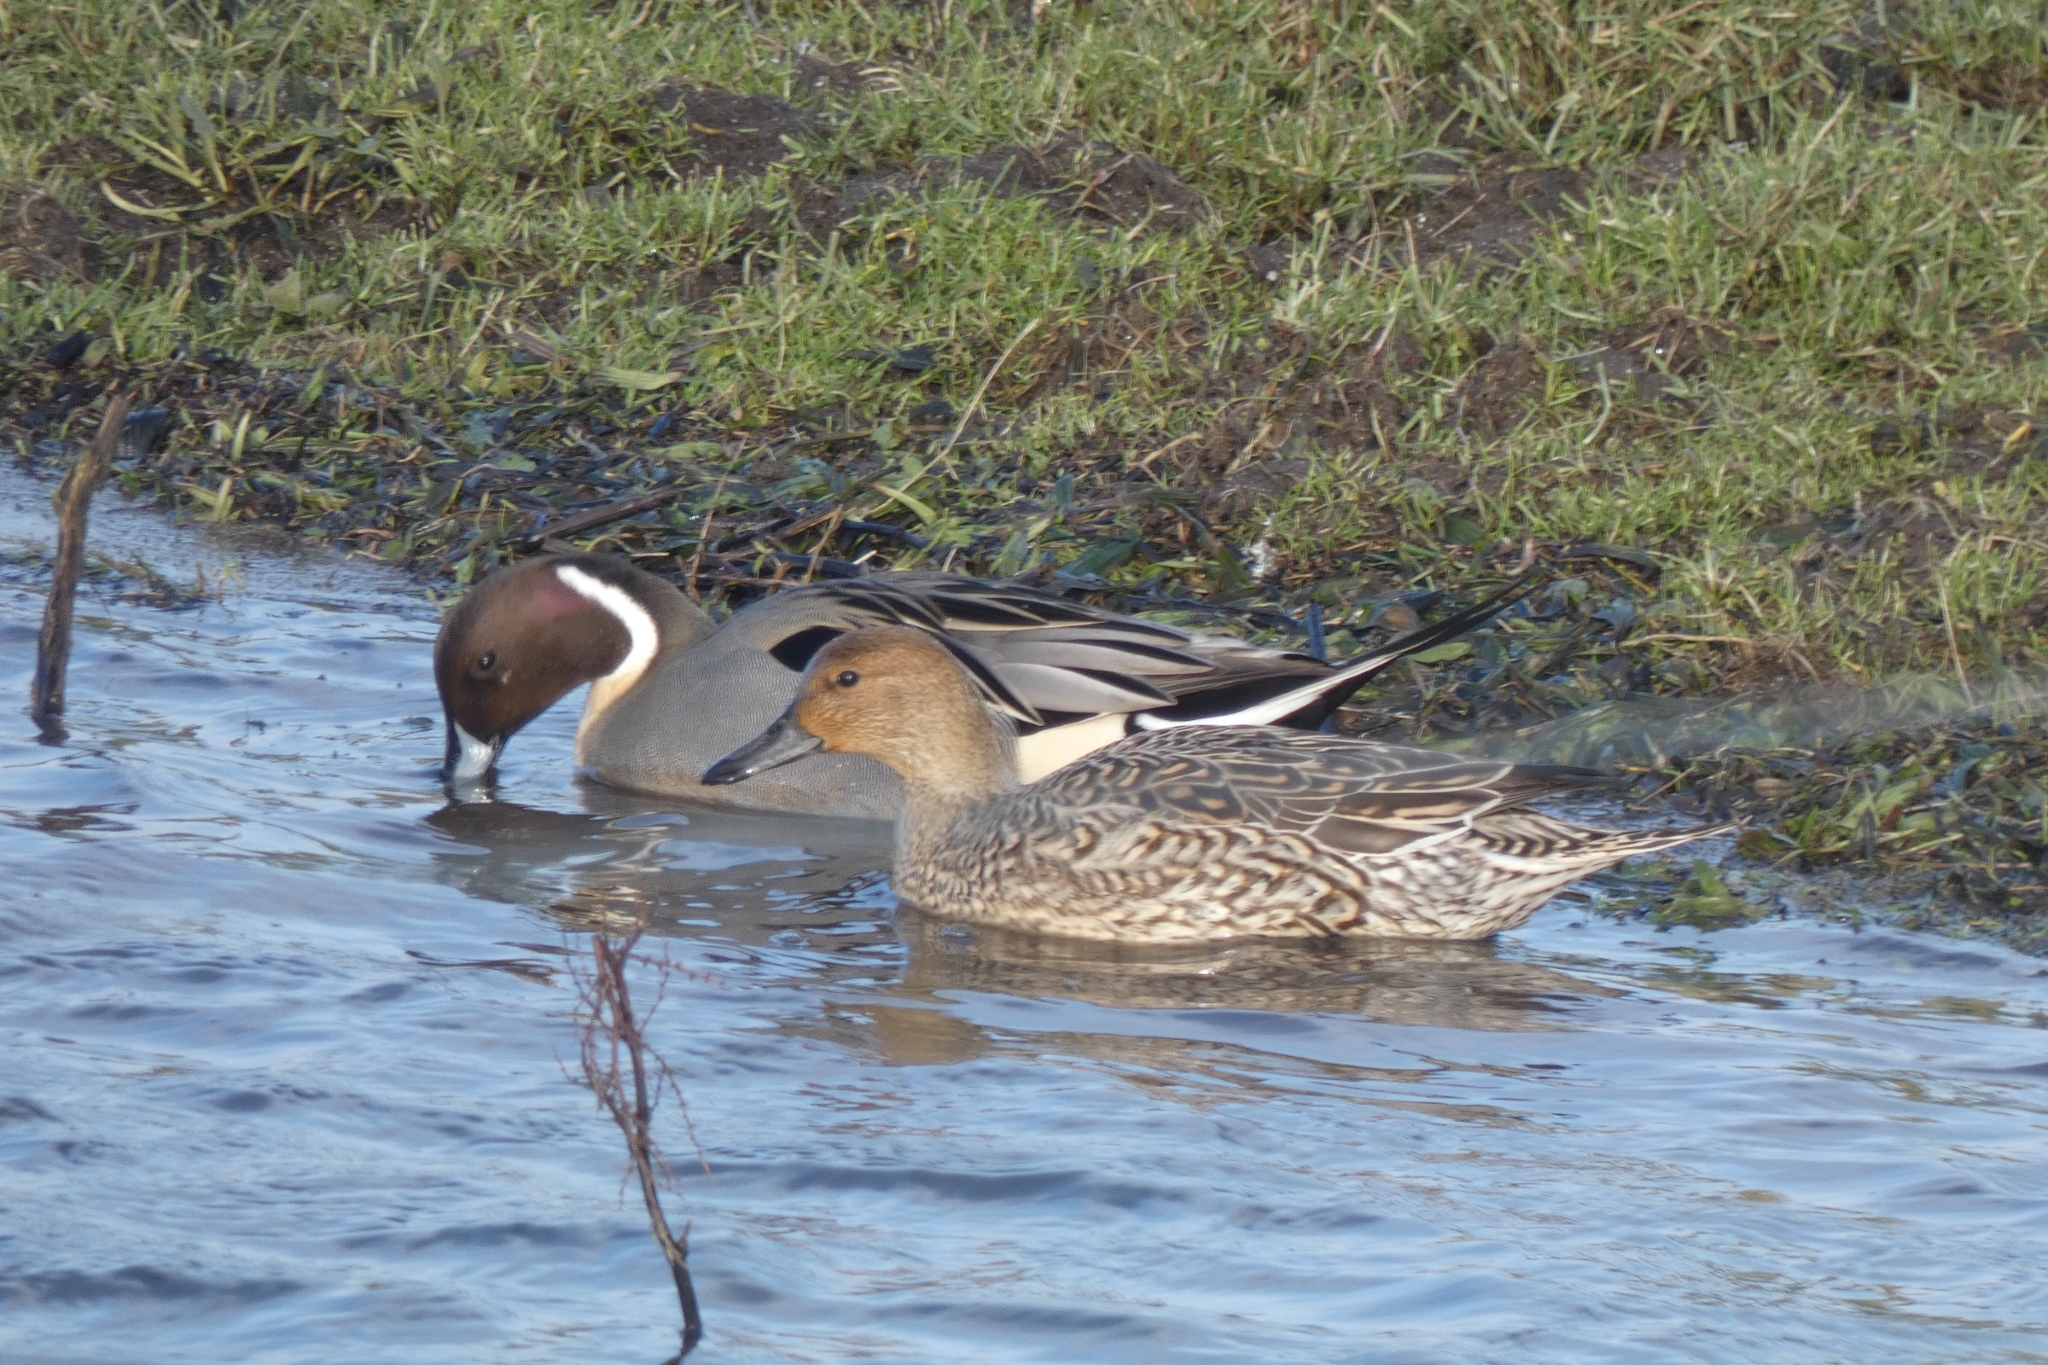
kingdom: Animalia
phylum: Chordata
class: Aves
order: Anseriformes
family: Anatidae
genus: Anas
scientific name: Anas acuta
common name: Northern pintail
